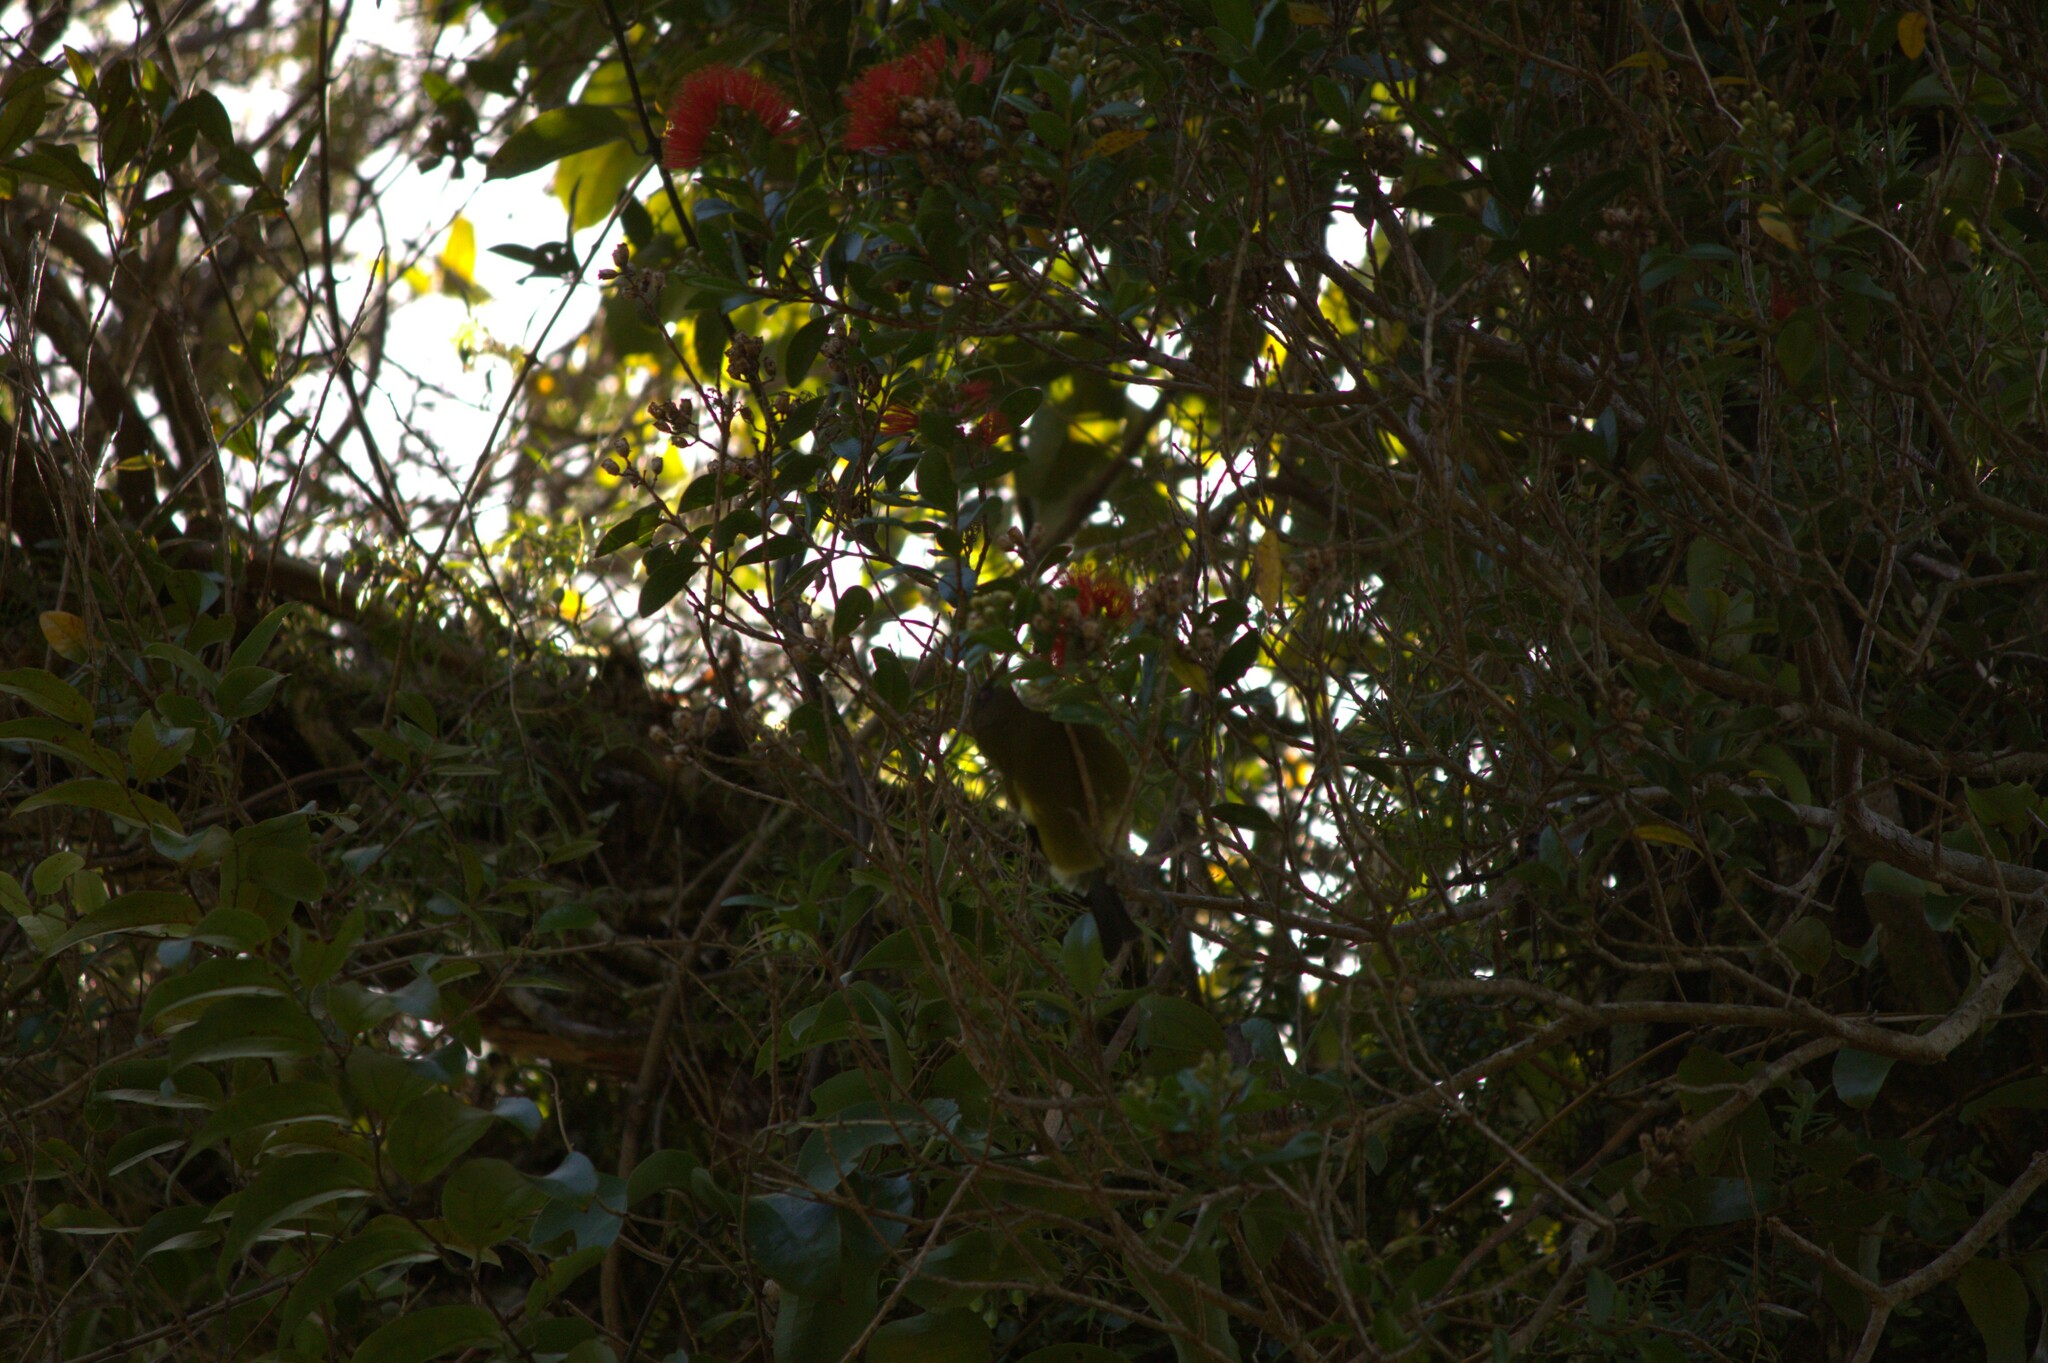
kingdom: Animalia
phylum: Chordata
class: Aves
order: Passeriformes
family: Meliphagidae
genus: Anthornis
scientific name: Anthornis melanura
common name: New zealand bellbird
